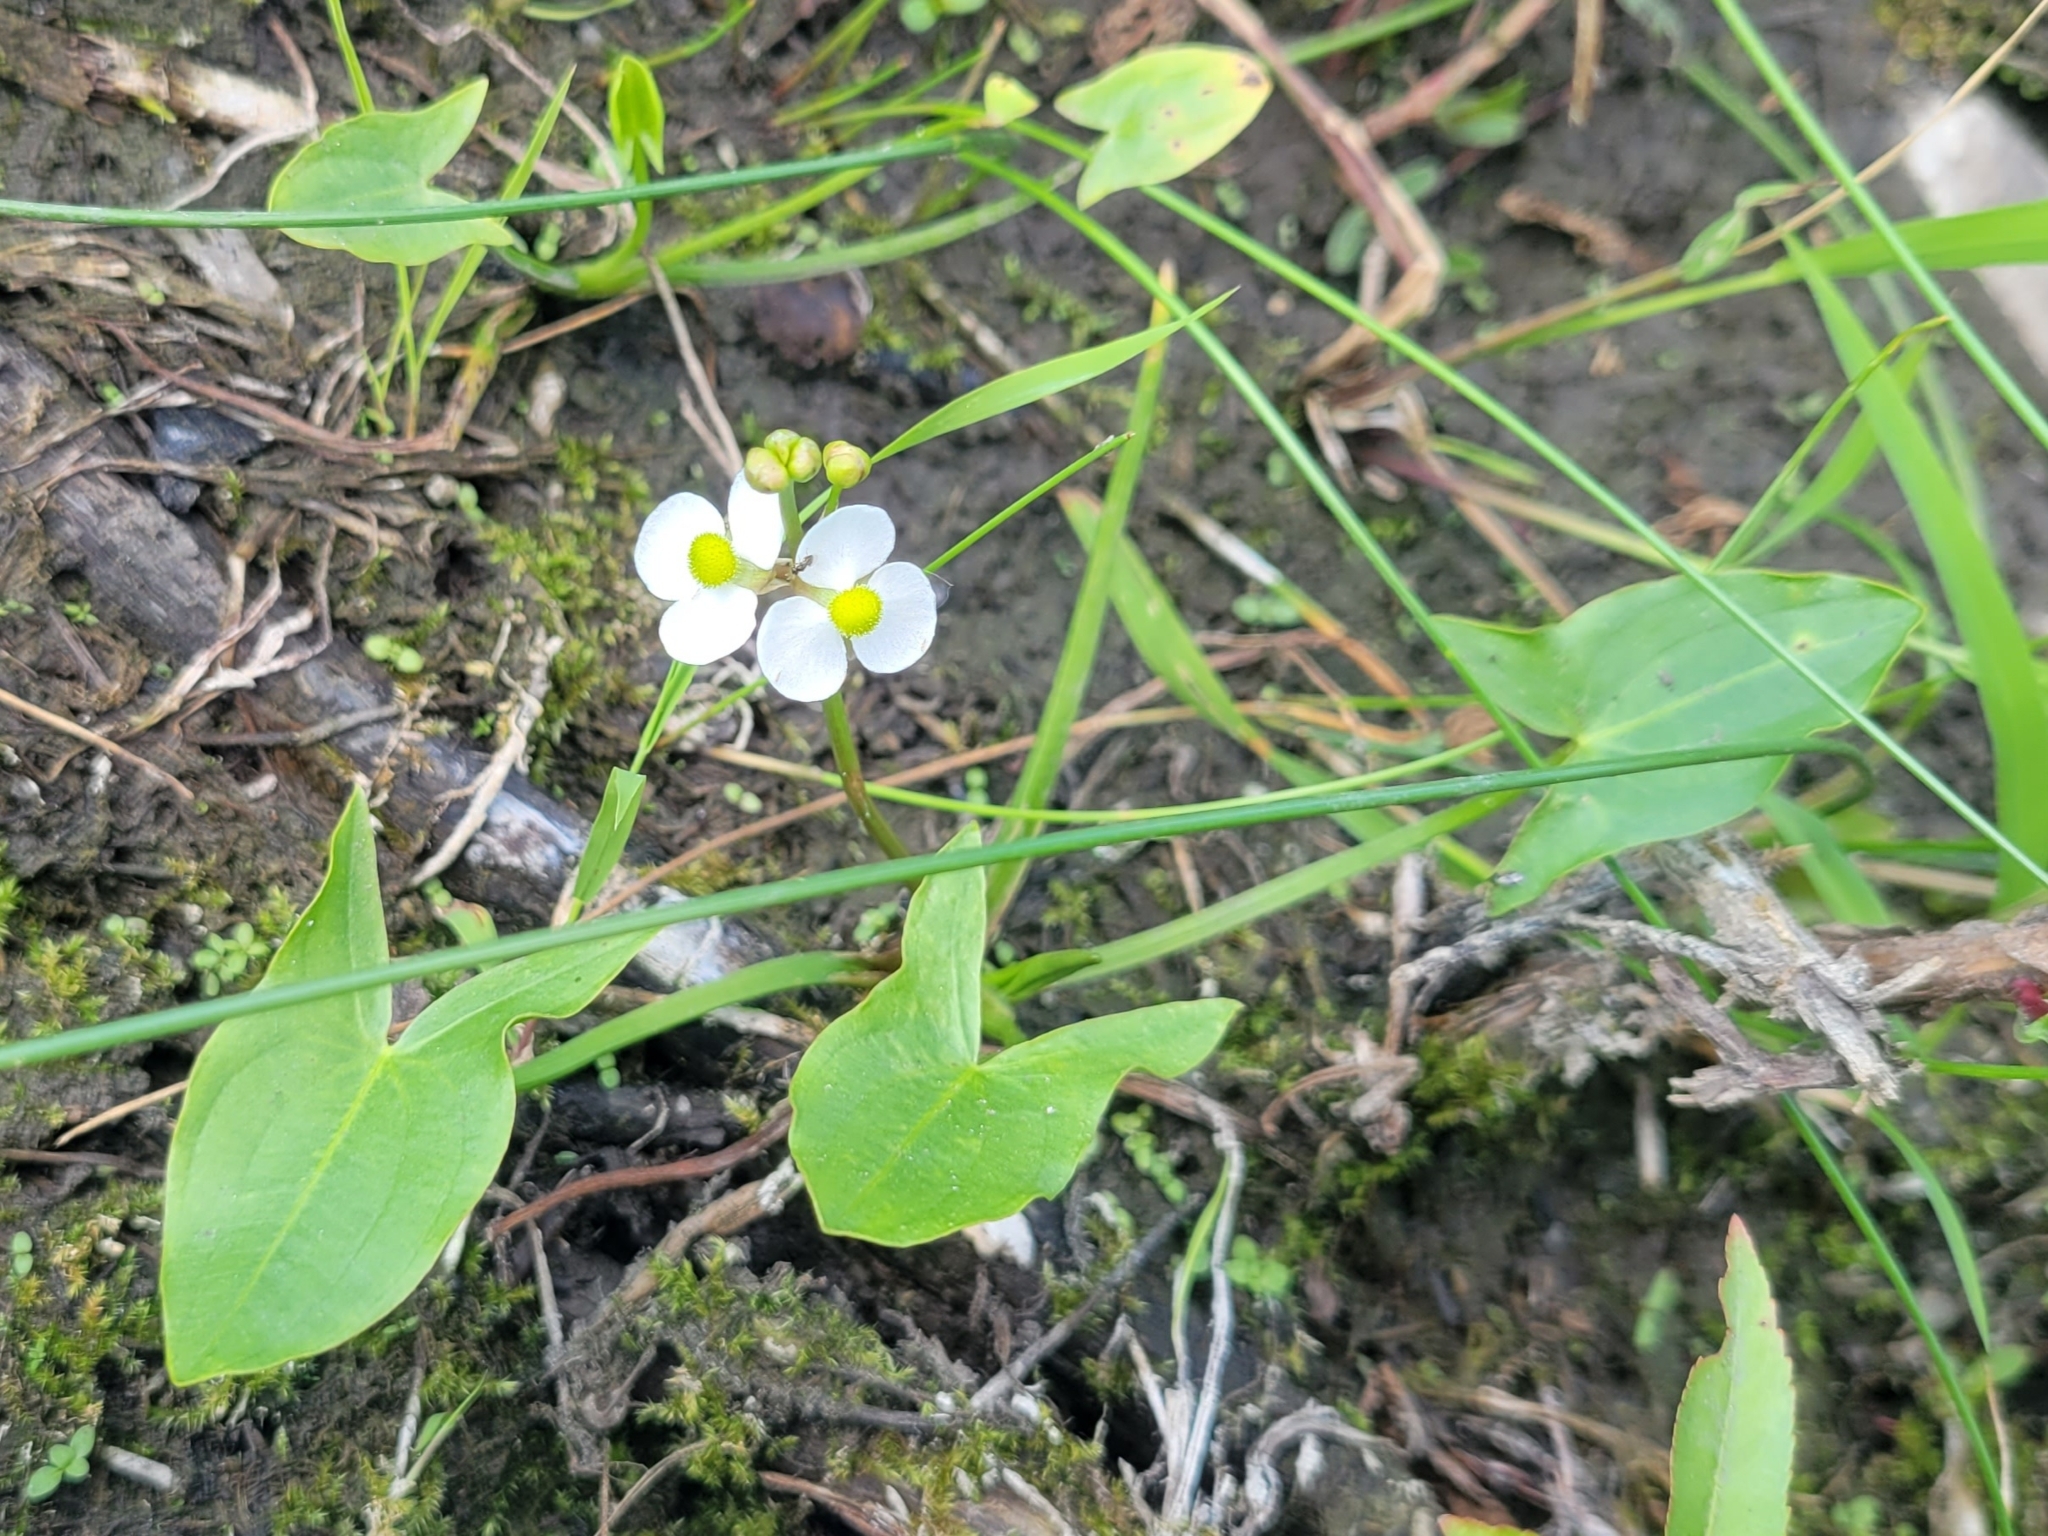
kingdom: Plantae
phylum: Tracheophyta
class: Liliopsida
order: Alismatales
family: Alismataceae
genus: Sagittaria
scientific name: Sagittaria latifolia
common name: Duck-potato
